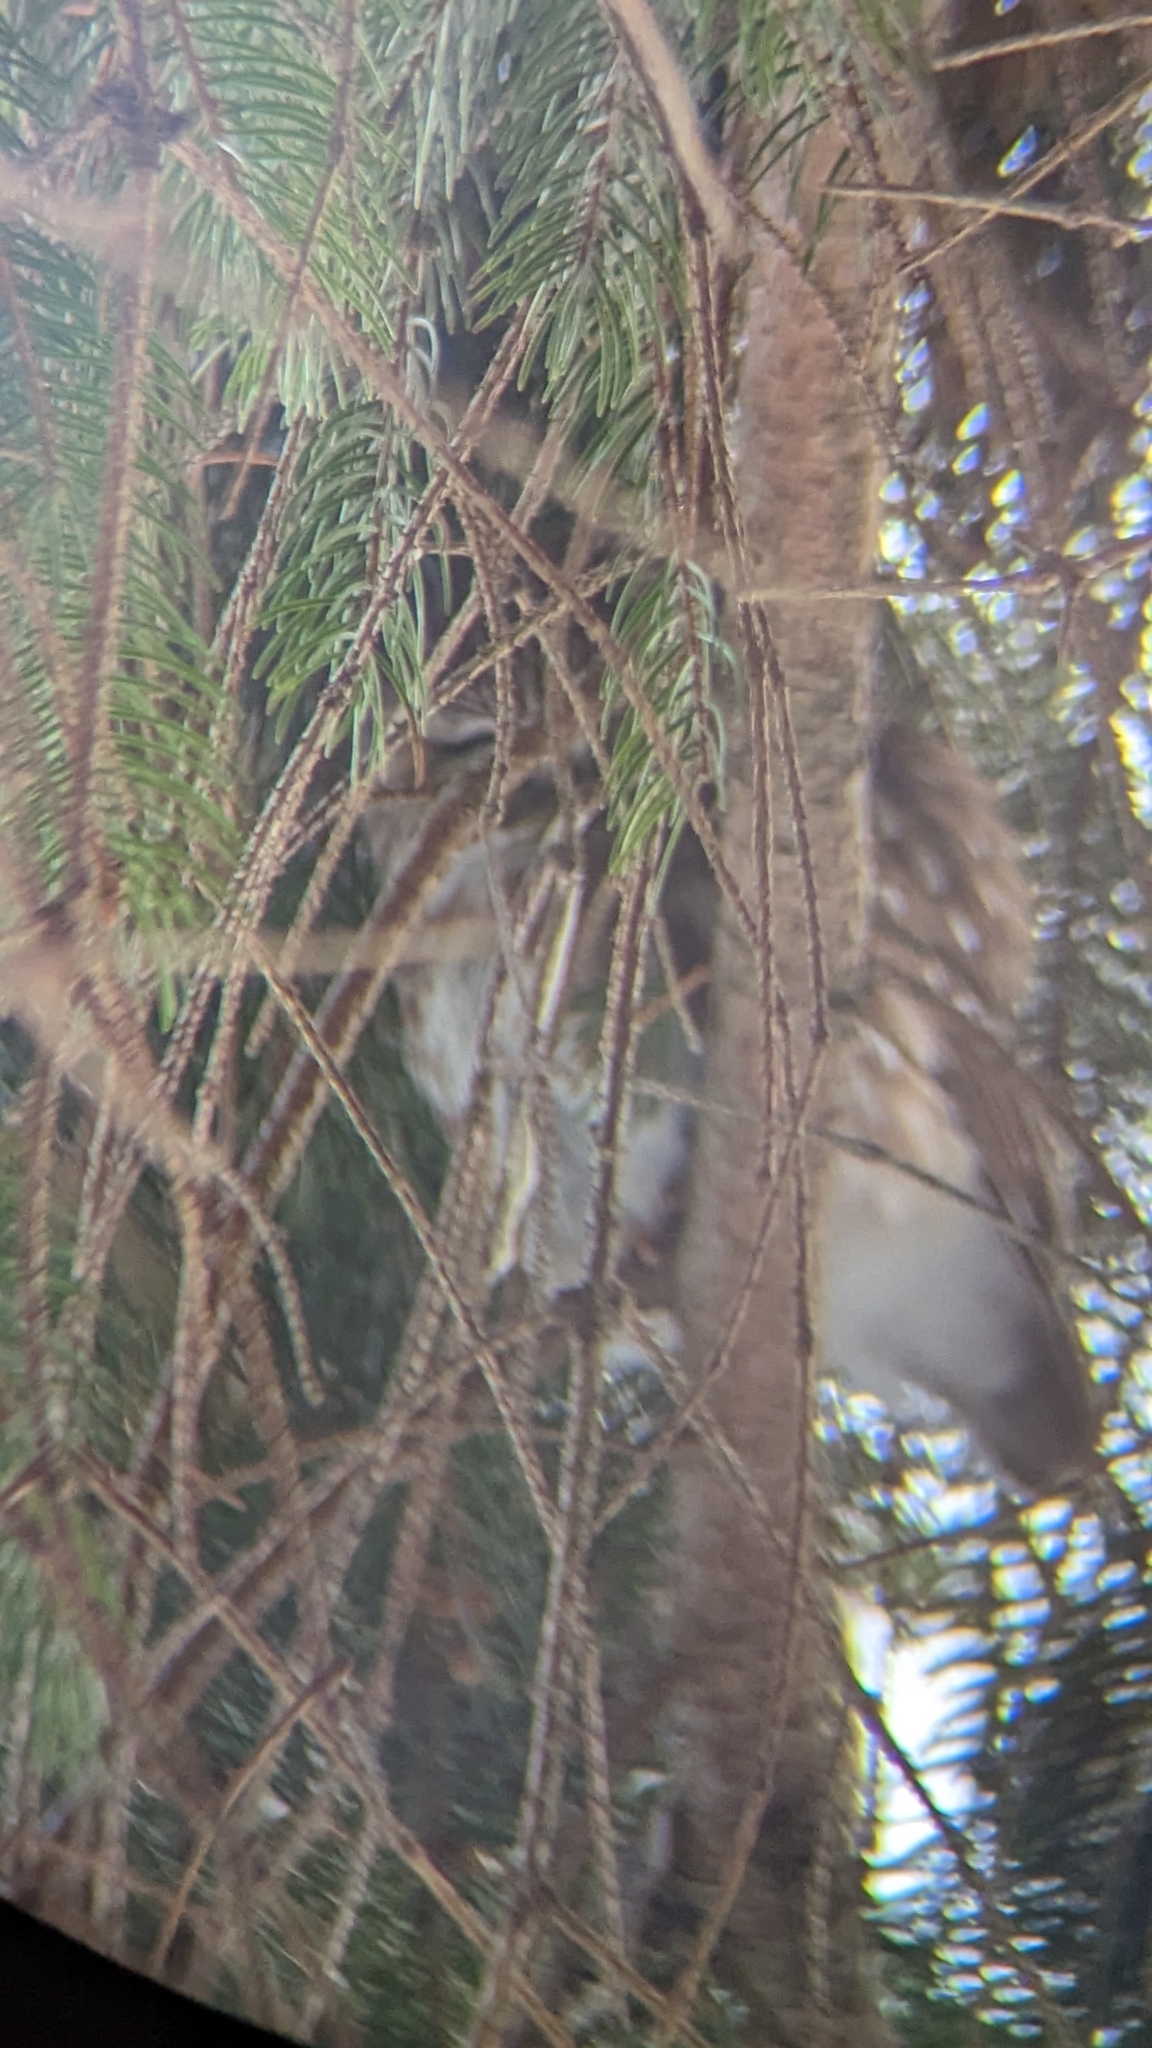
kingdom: Animalia
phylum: Chordata
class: Aves
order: Strigiformes
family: Strigidae
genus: Aegolius
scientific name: Aegolius acadicus
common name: Northern saw-whet owl
